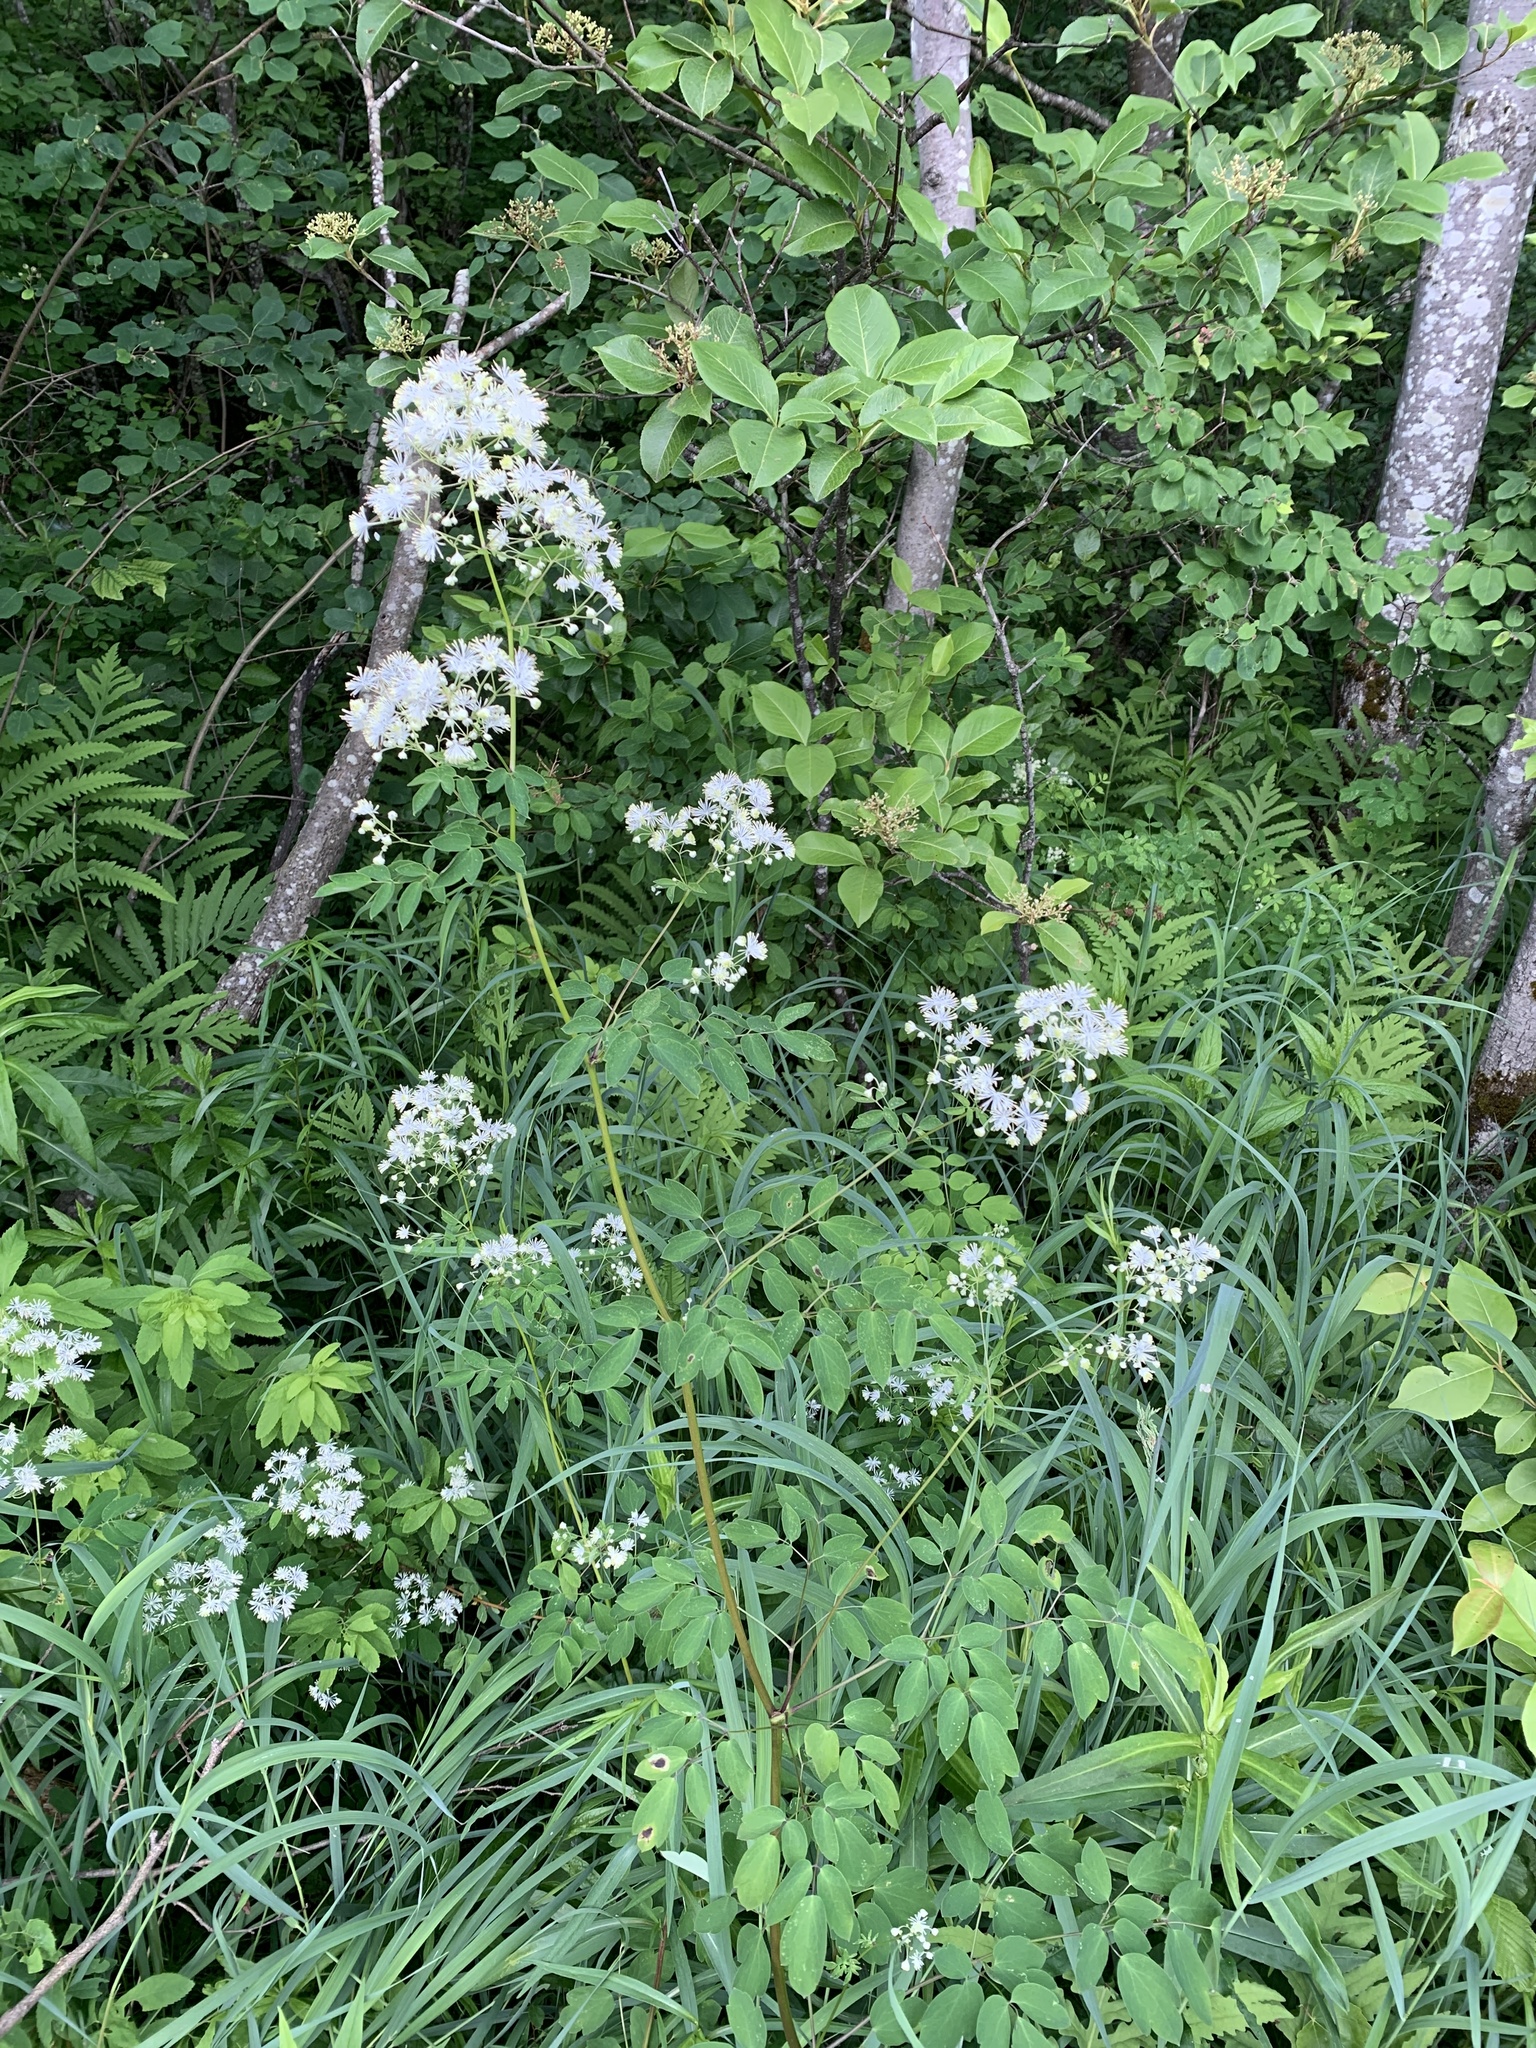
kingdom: Plantae
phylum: Tracheophyta
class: Magnoliopsida
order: Ranunculales
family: Ranunculaceae
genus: Thalictrum
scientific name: Thalictrum pubescens
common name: King-of-the-meadow
